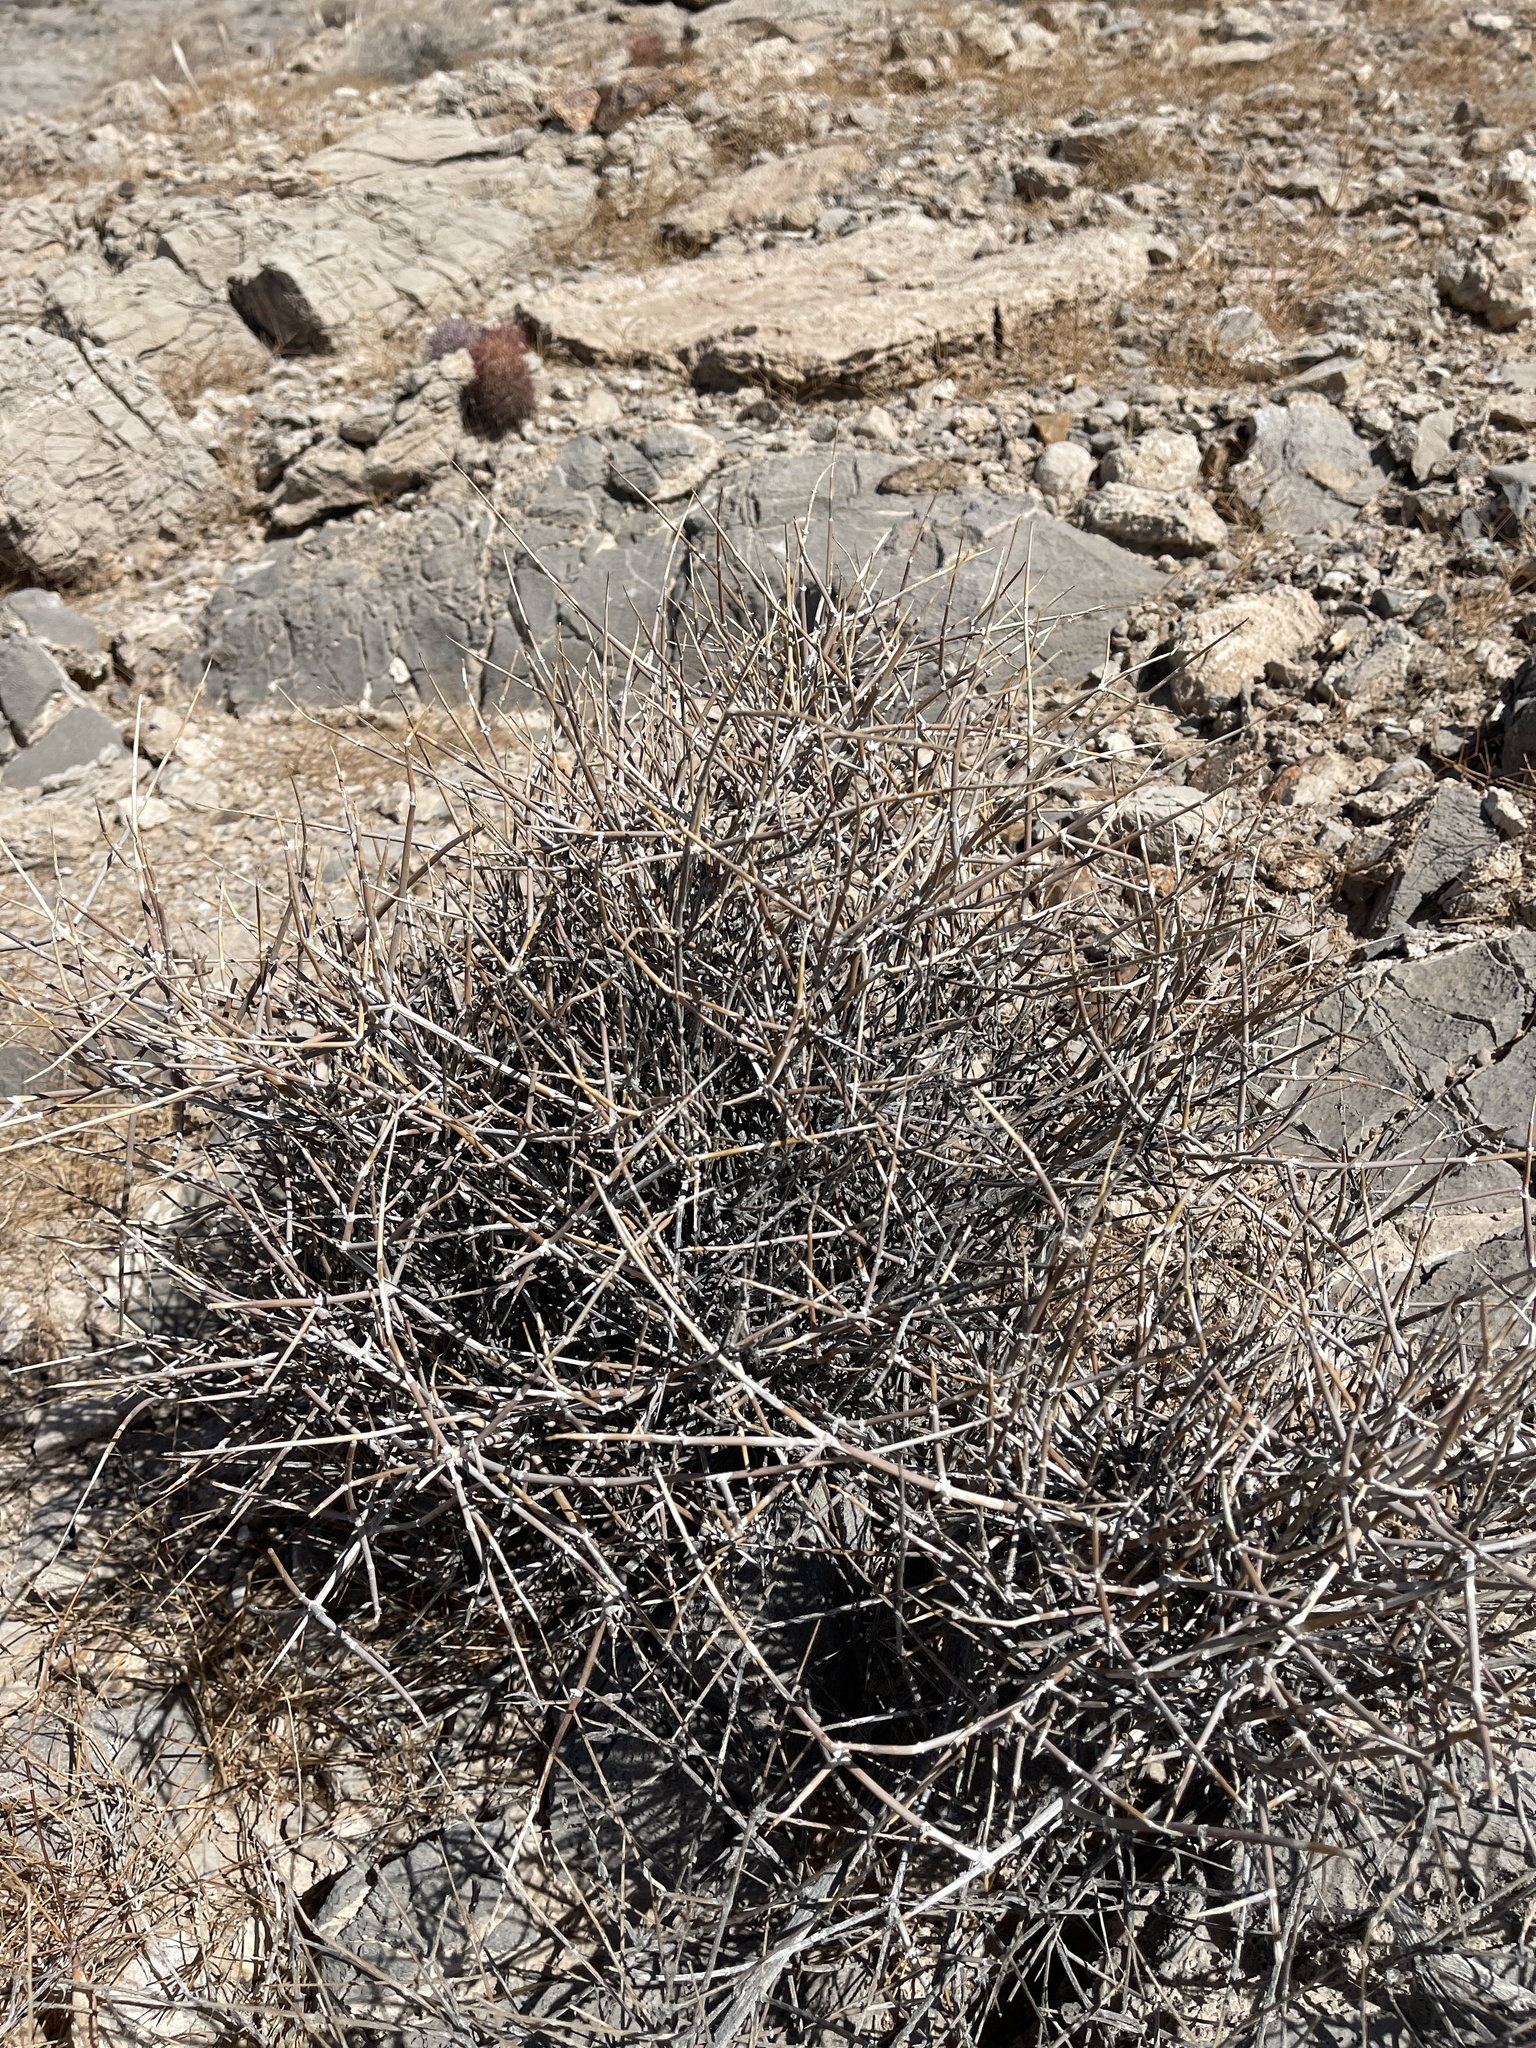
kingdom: Plantae
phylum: Tracheophyta
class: Gnetopsida
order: Ephedrales
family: Ephedraceae
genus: Ephedra
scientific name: Ephedra nevadensis
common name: Gray ephedra
